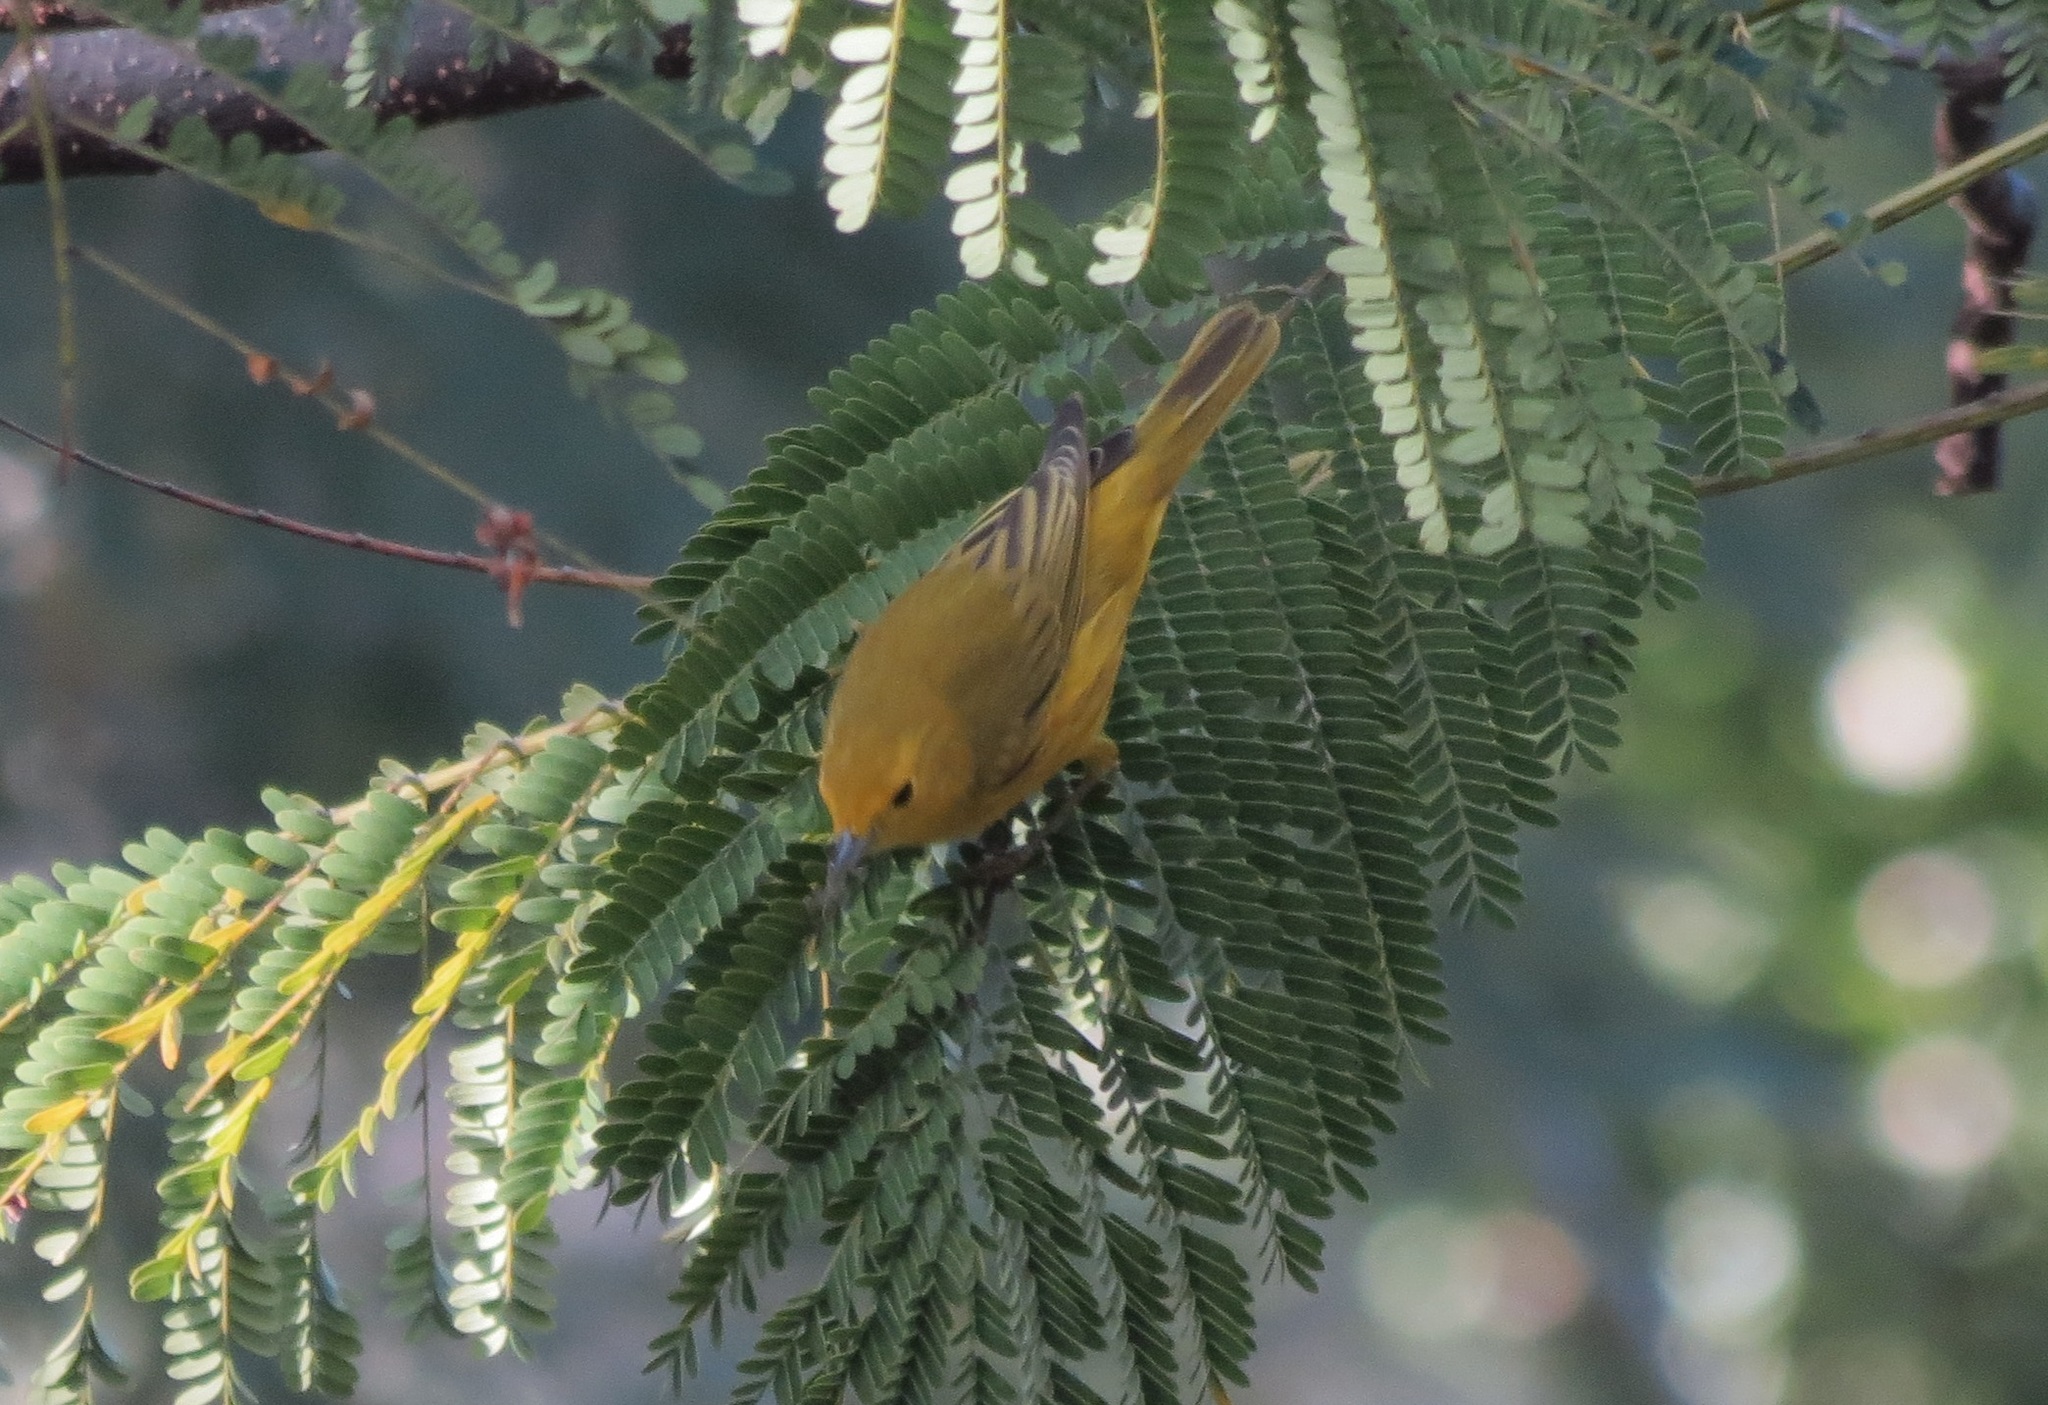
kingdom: Animalia
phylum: Chordata
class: Aves
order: Passeriformes
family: Parulidae
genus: Setophaga
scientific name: Setophaga petechia
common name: Yellow warbler
